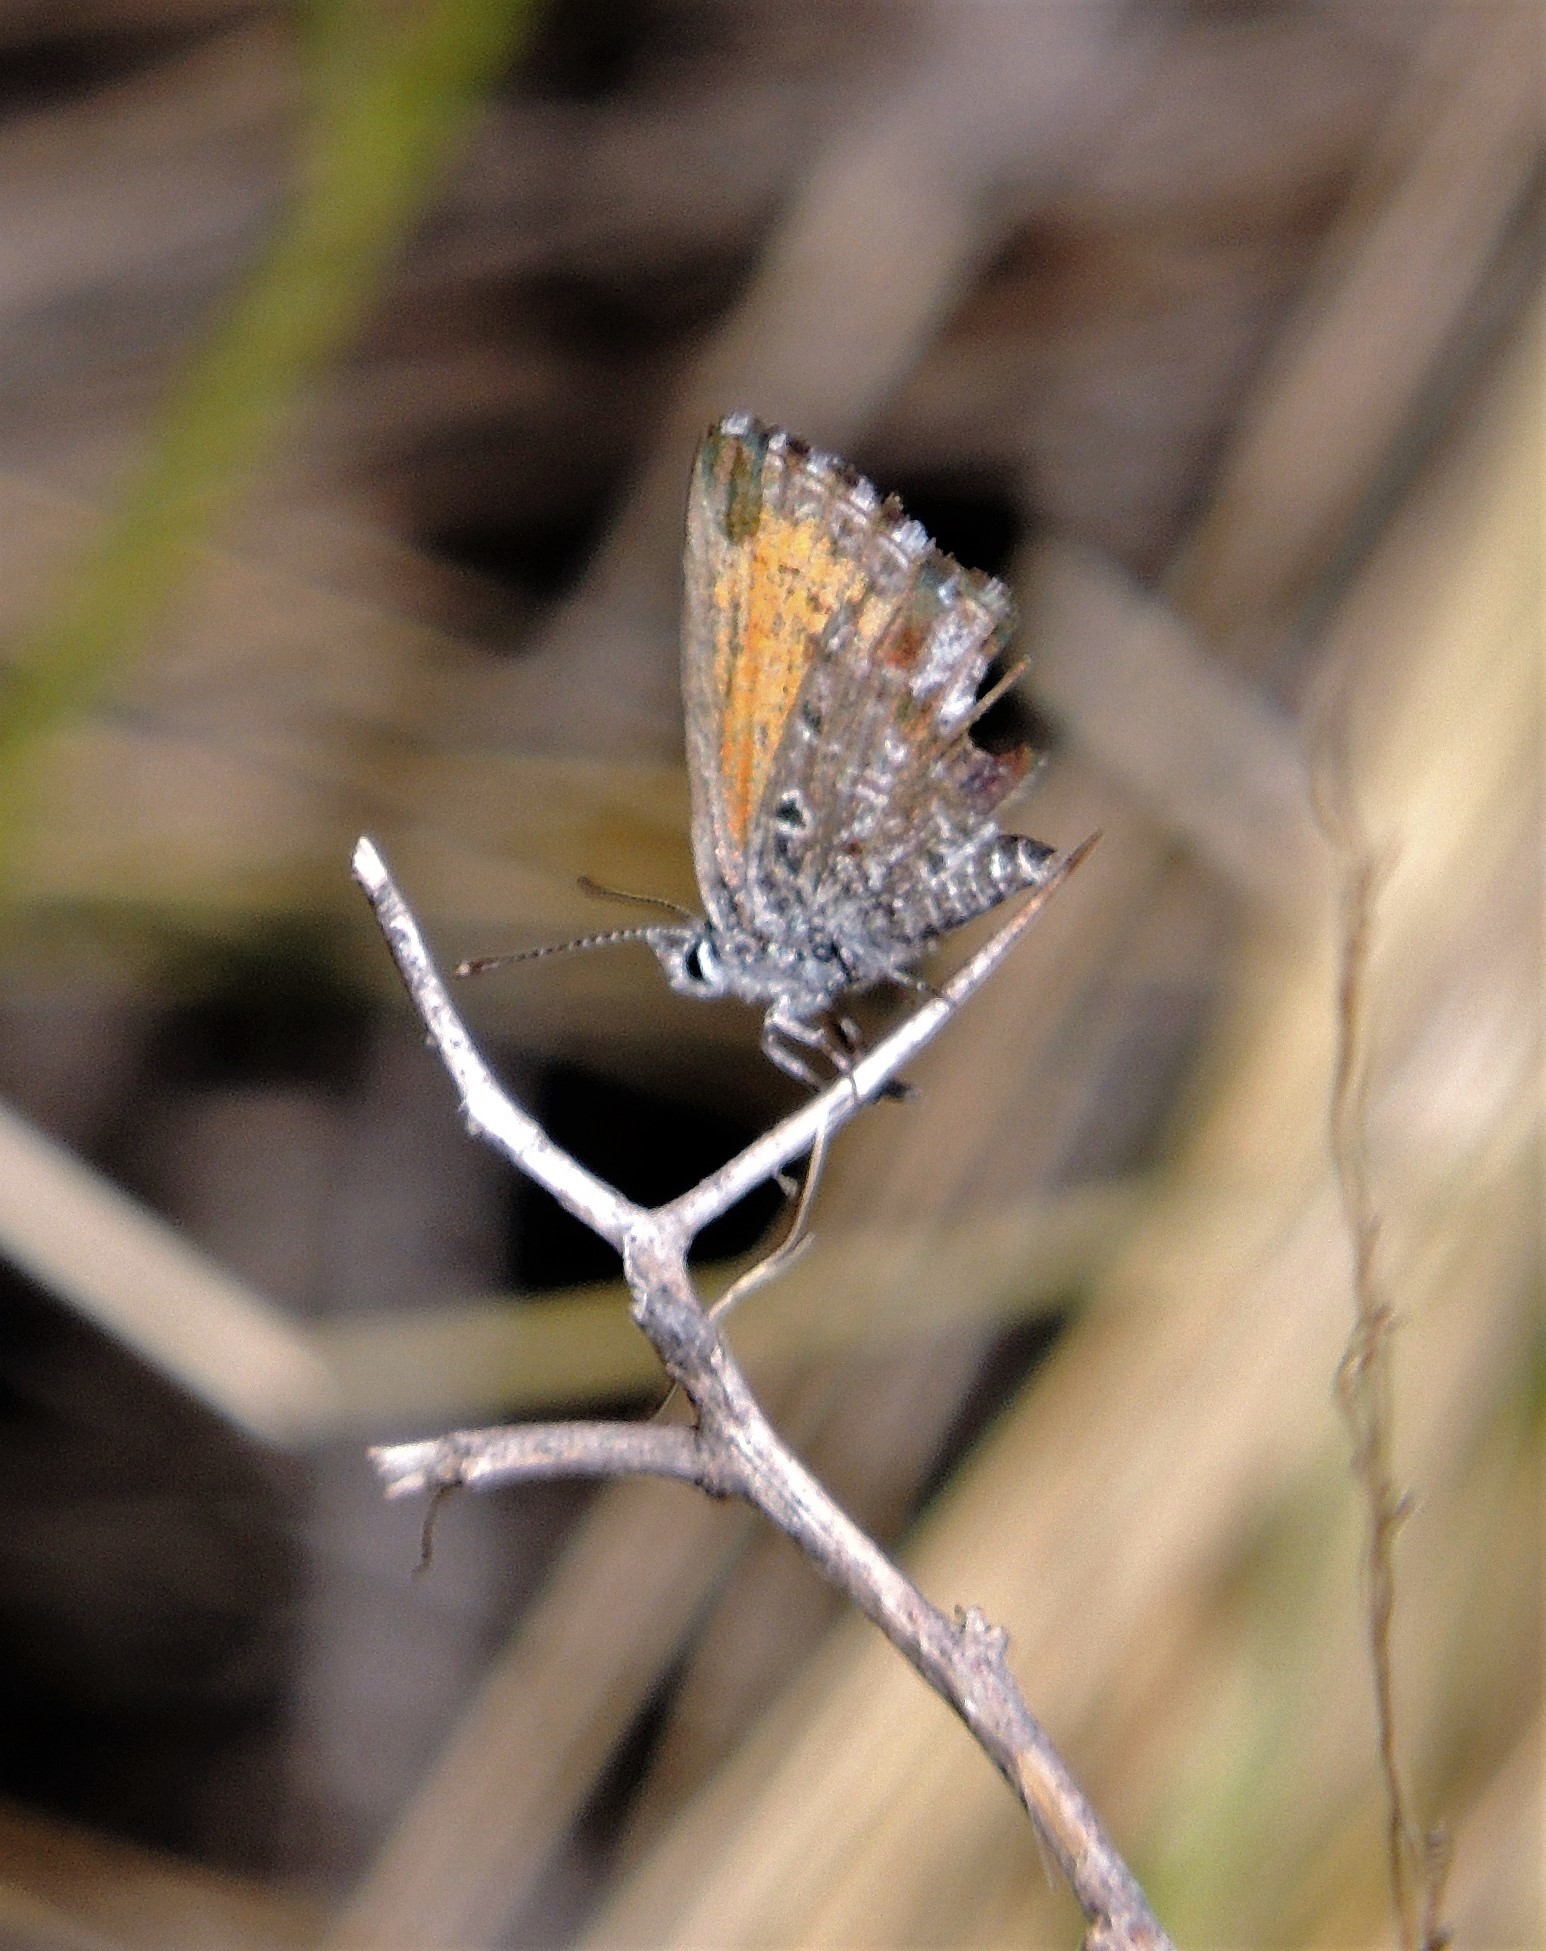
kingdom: Animalia
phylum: Arthropoda
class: Insecta
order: Lepidoptera
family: Lycaenidae
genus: Pseudolucia
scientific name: Pseudolucia patago
